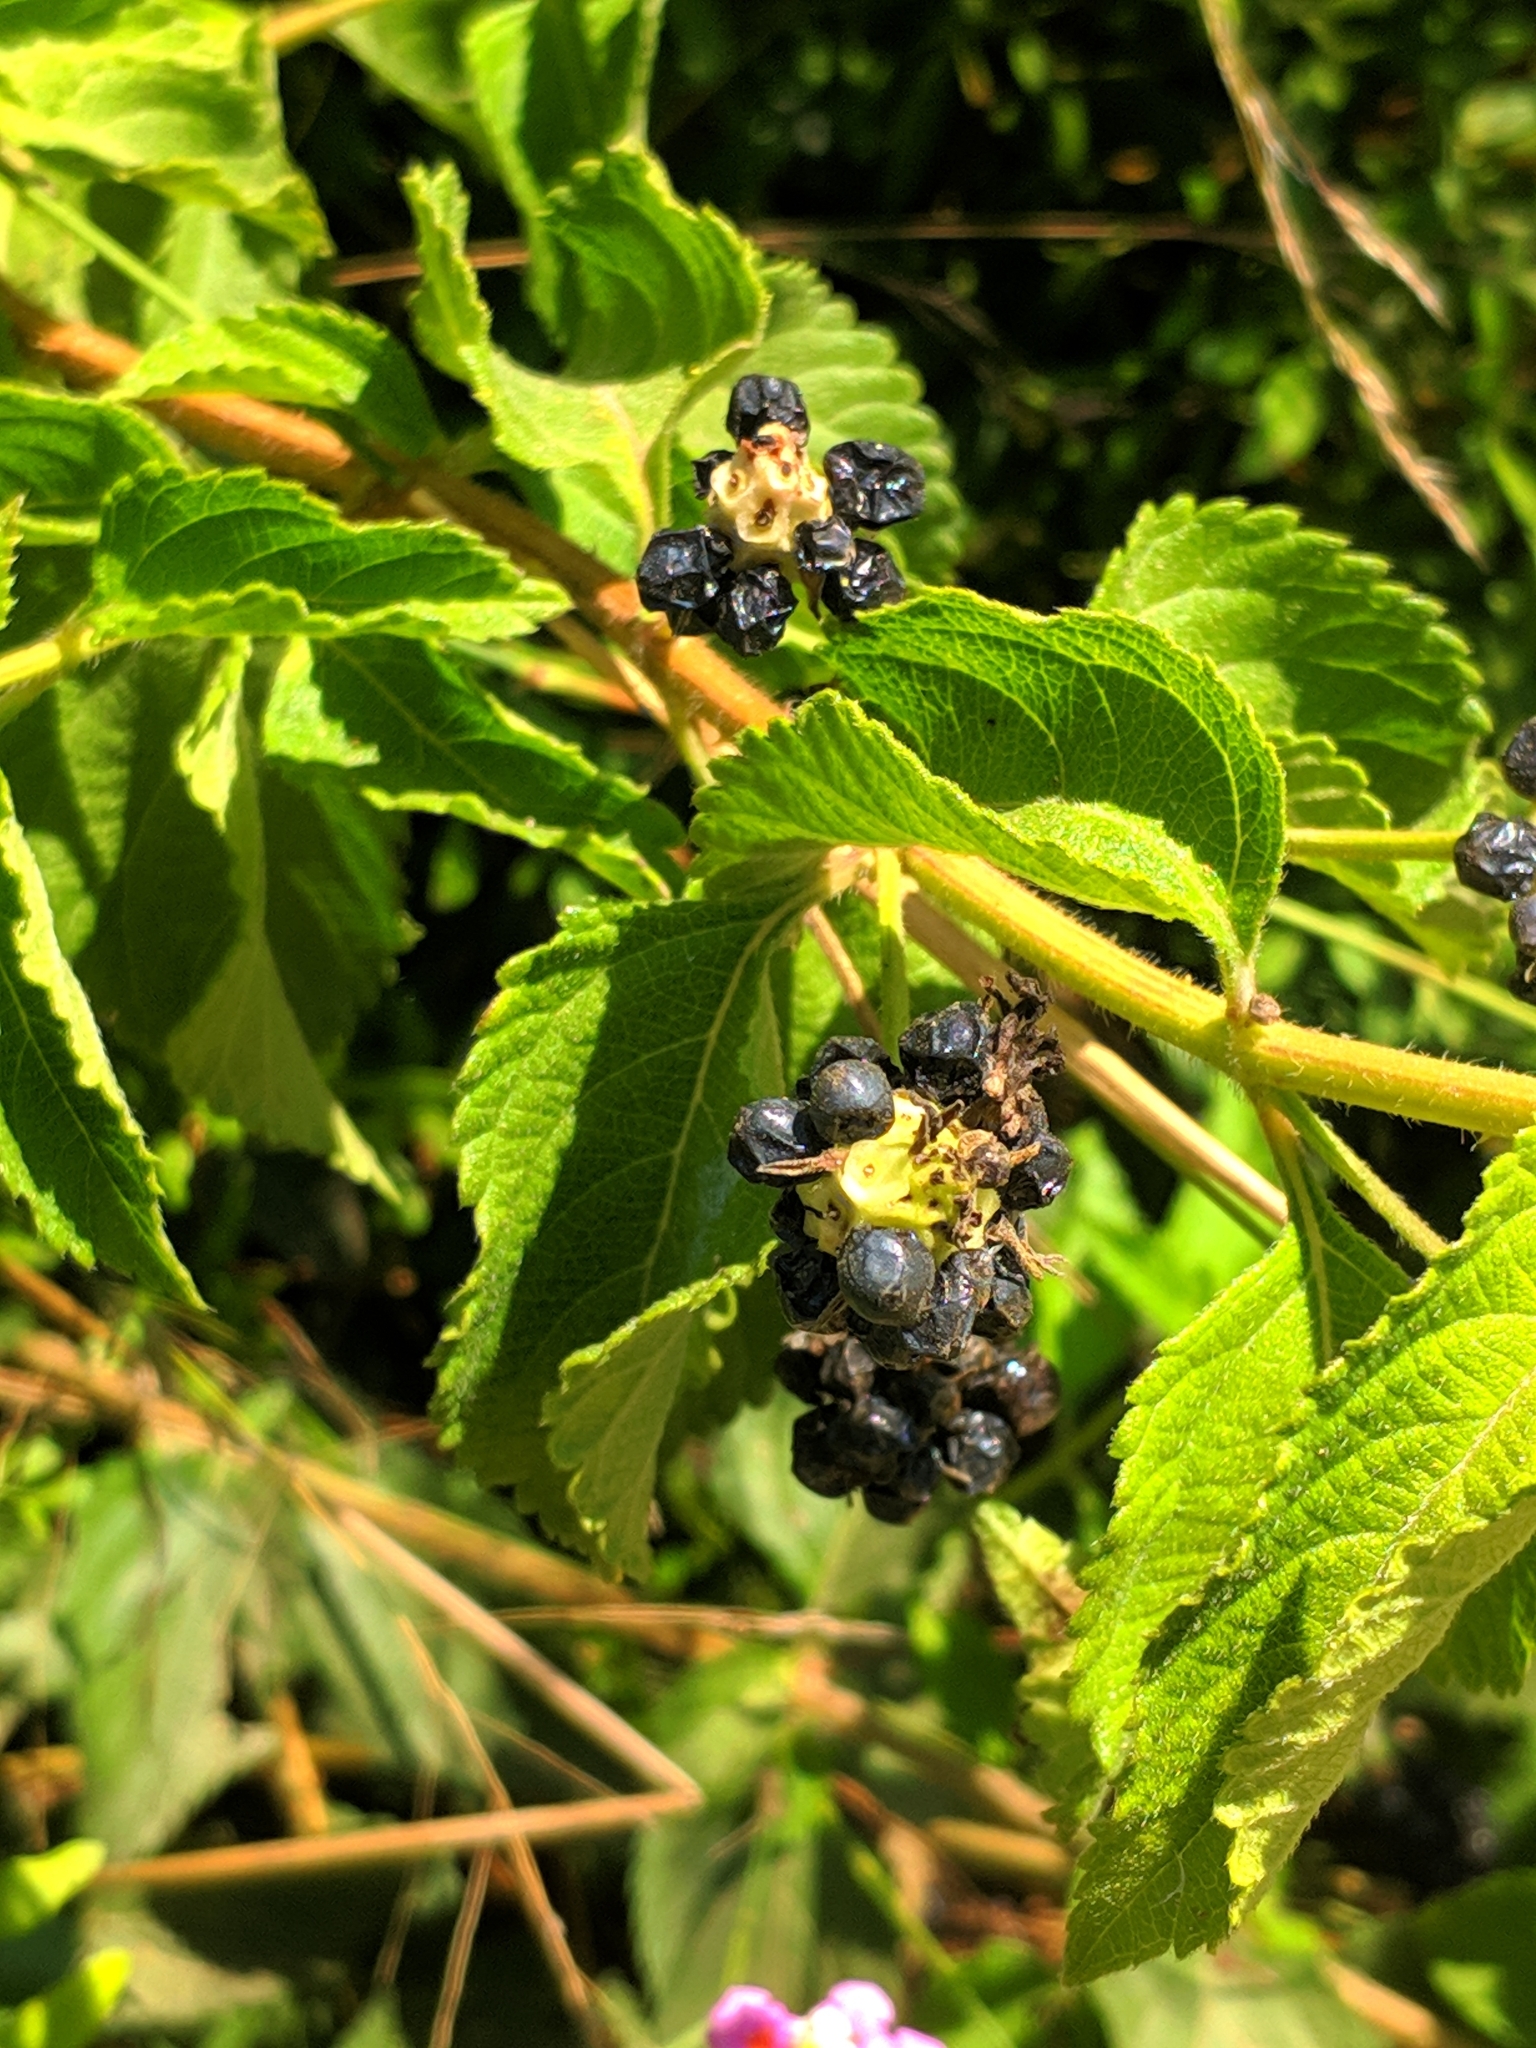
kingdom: Plantae
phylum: Tracheophyta
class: Magnoliopsida
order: Lamiales
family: Verbenaceae
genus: Lantana
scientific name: Lantana camara
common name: Lantana
